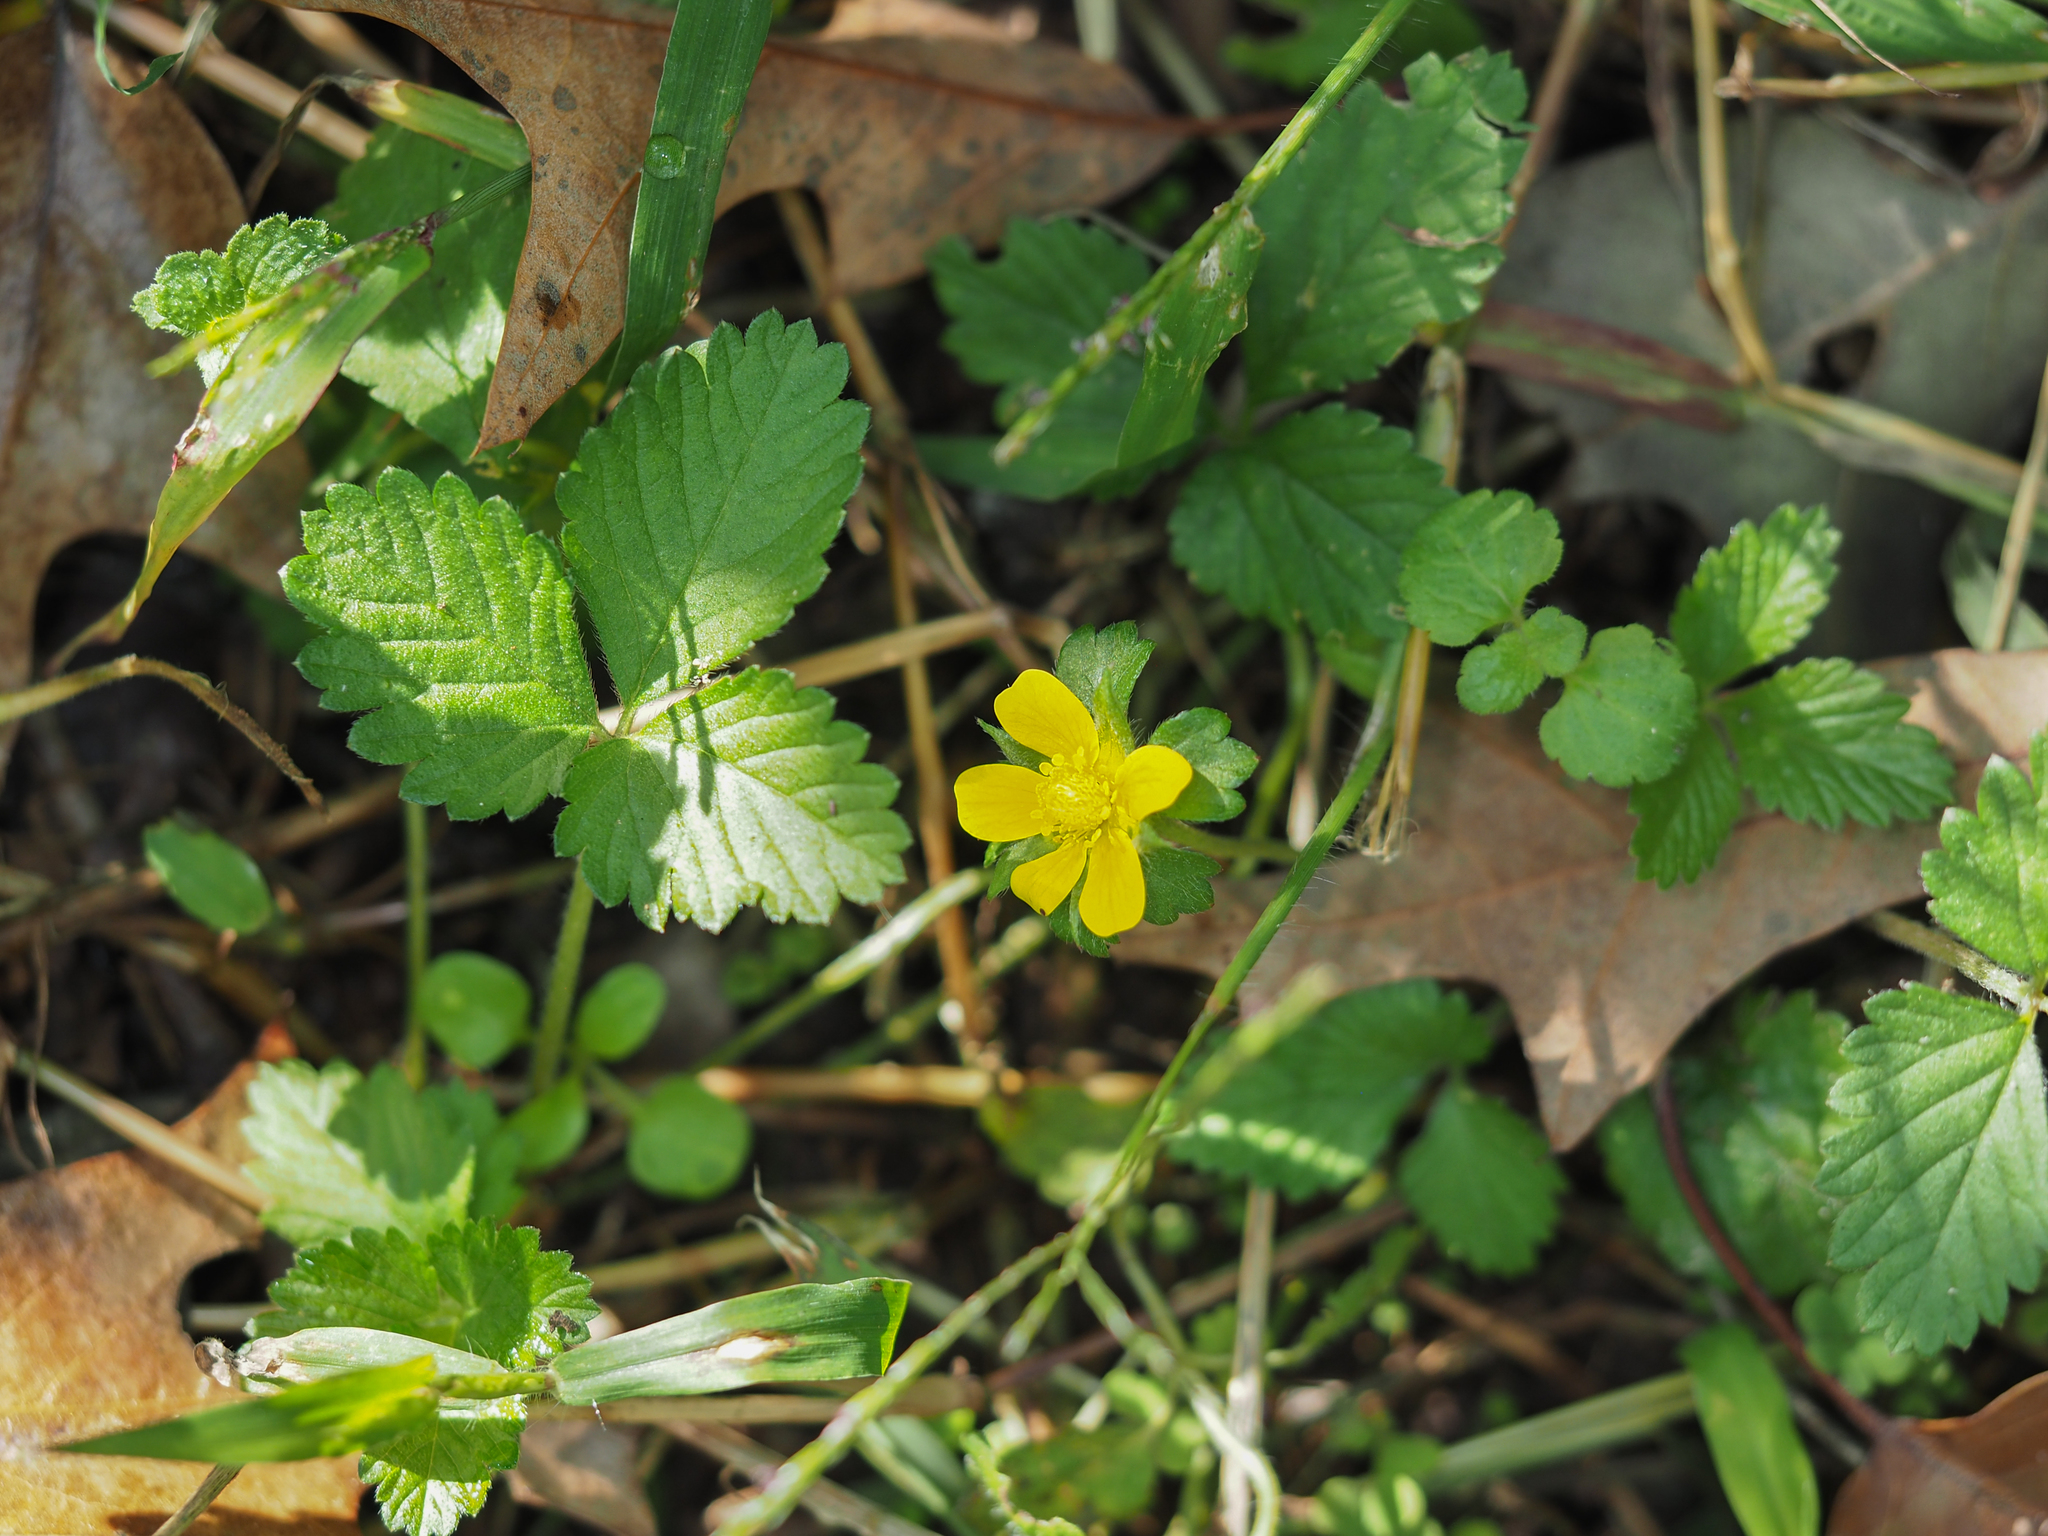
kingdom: Plantae
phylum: Tracheophyta
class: Magnoliopsida
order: Rosales
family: Rosaceae
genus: Potentilla
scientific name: Potentilla indica
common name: Yellow-flowered strawberry
